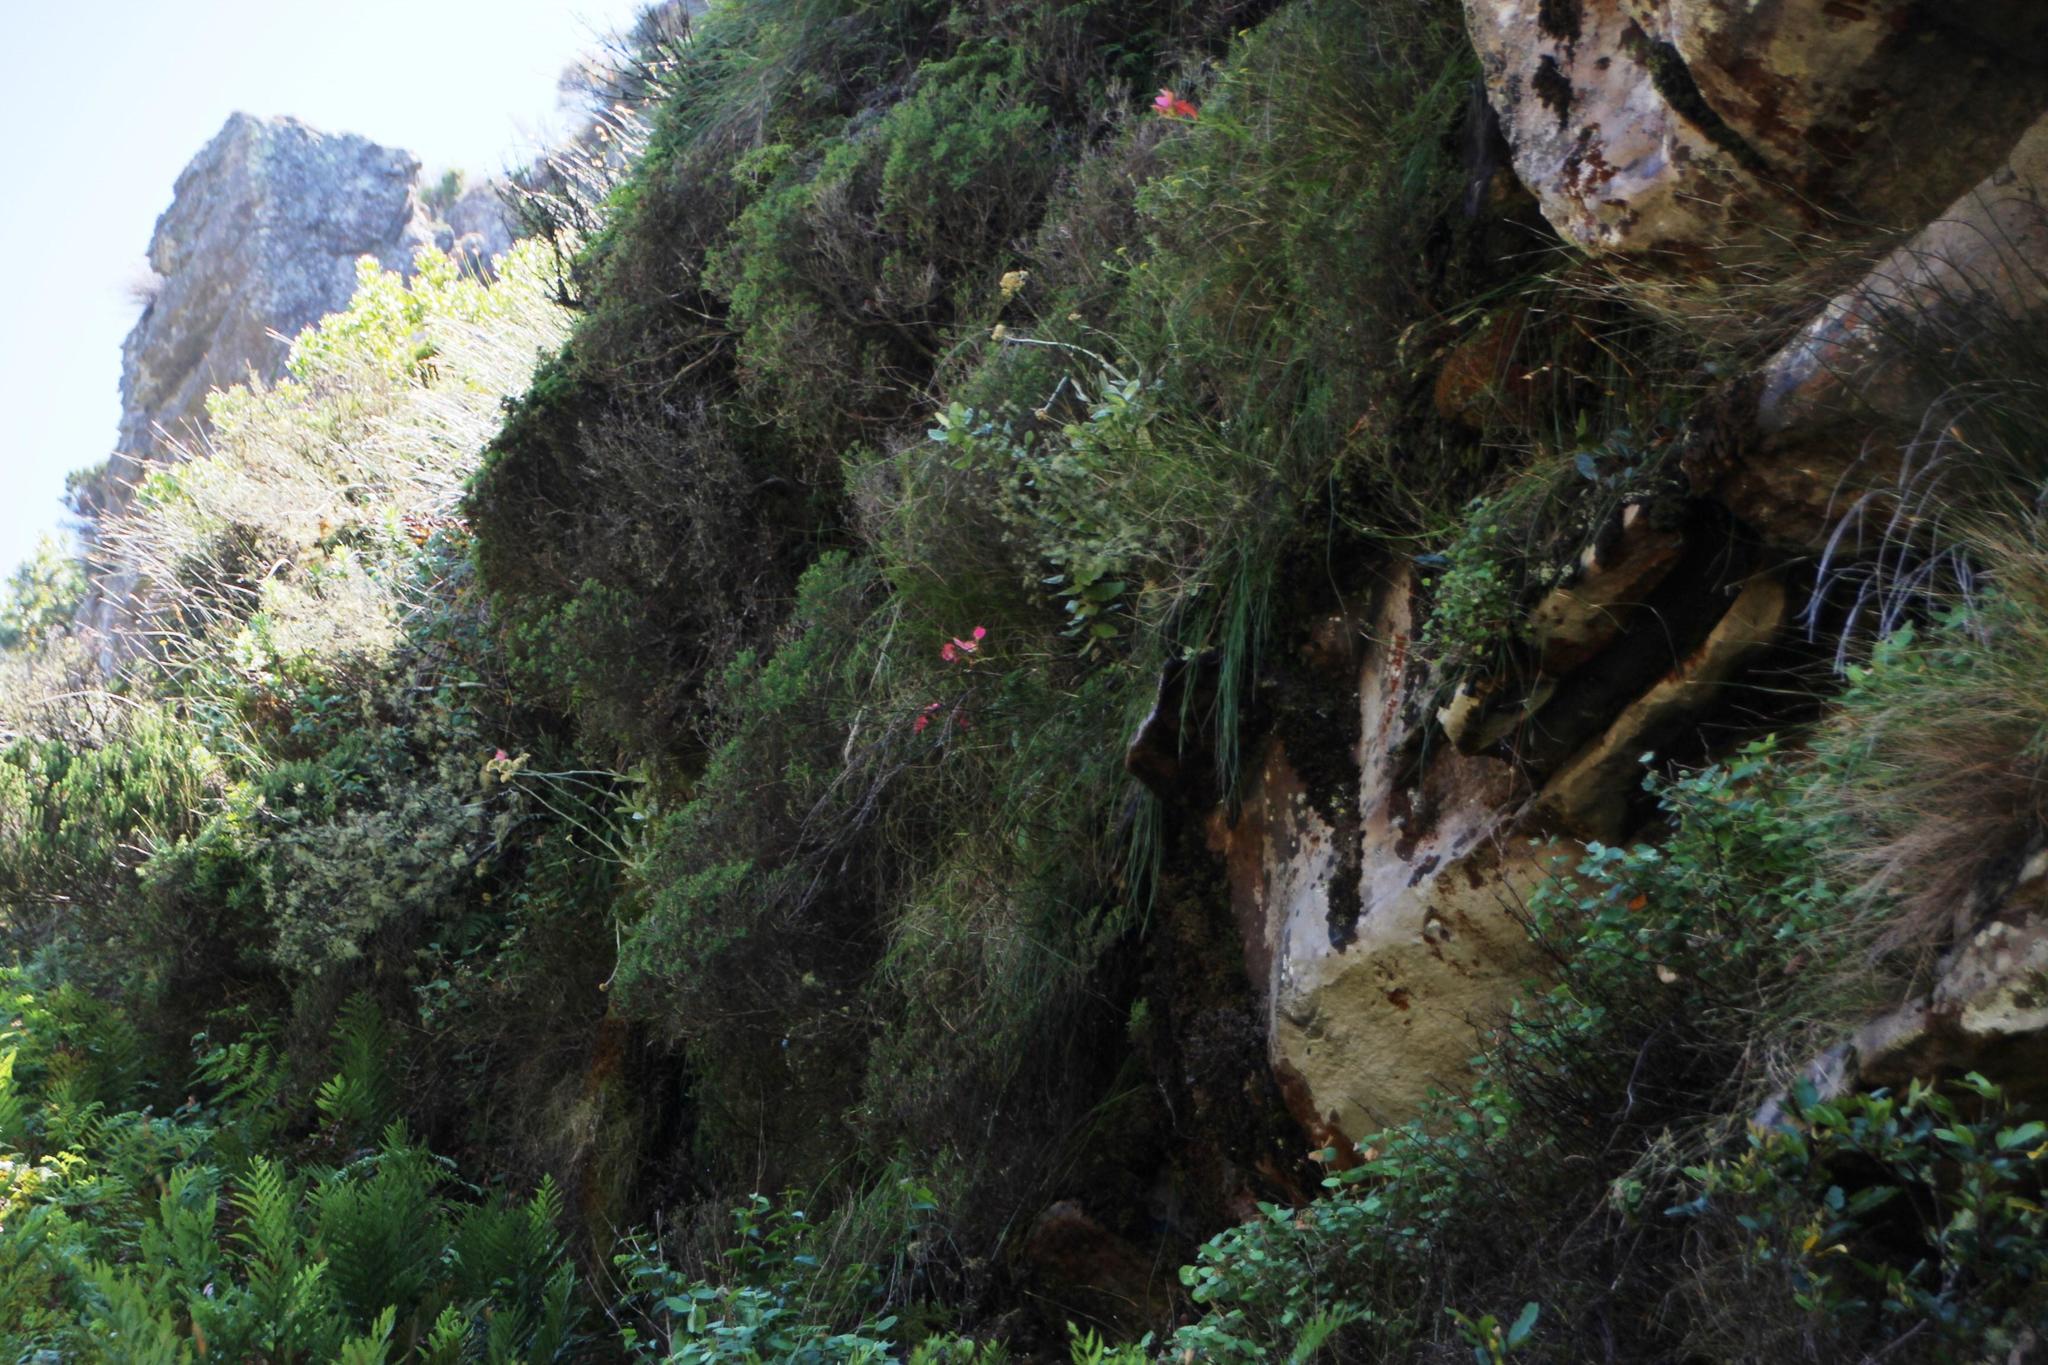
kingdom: Plantae
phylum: Tracheophyta
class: Liliopsida
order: Asparagales
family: Orchidaceae
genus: Disa
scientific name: Disa uniflora
